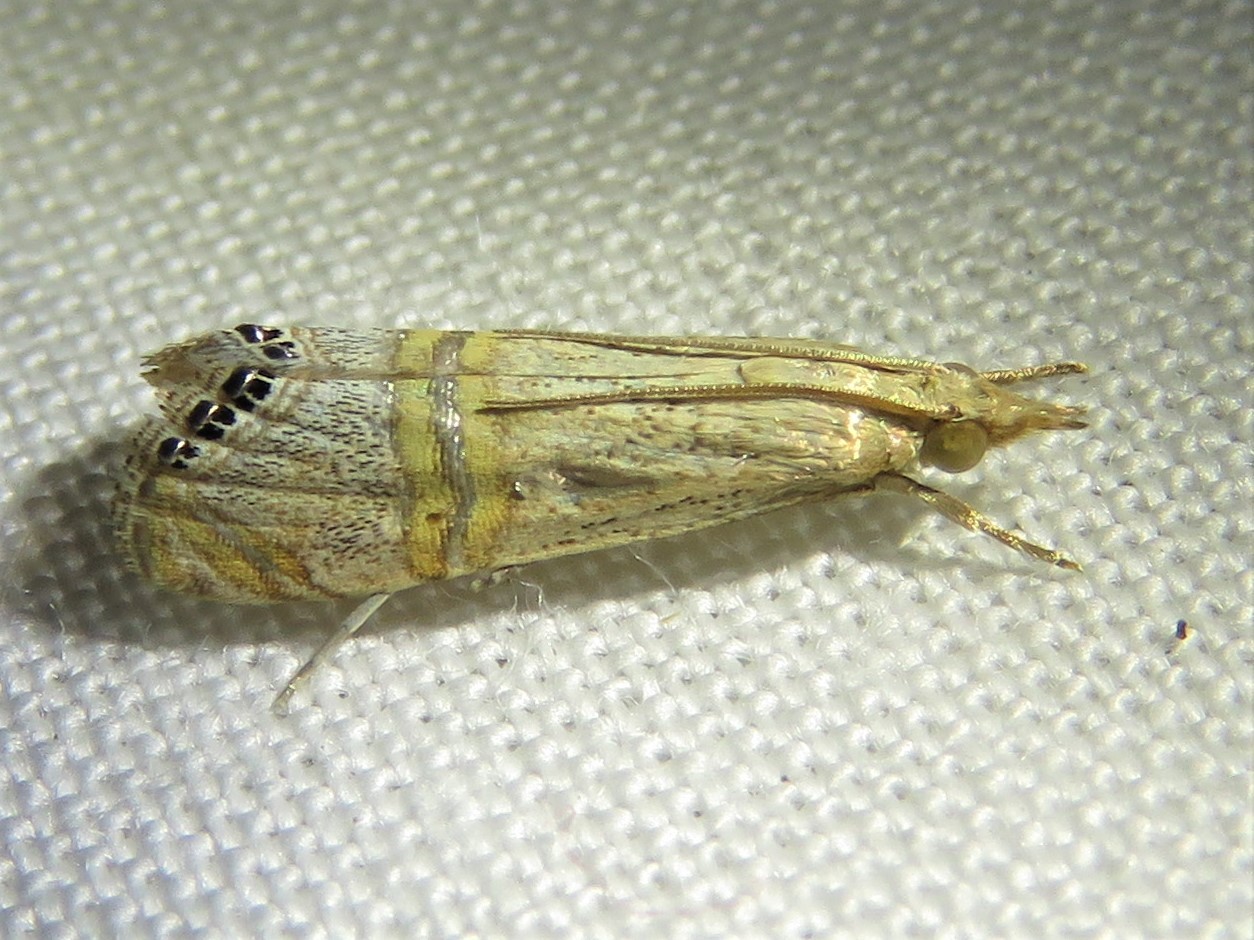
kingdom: Animalia
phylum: Arthropoda
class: Insecta
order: Lepidoptera
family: Crambidae
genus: Euchromius
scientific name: Euchromius ocellea
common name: Necklace veneer moth
